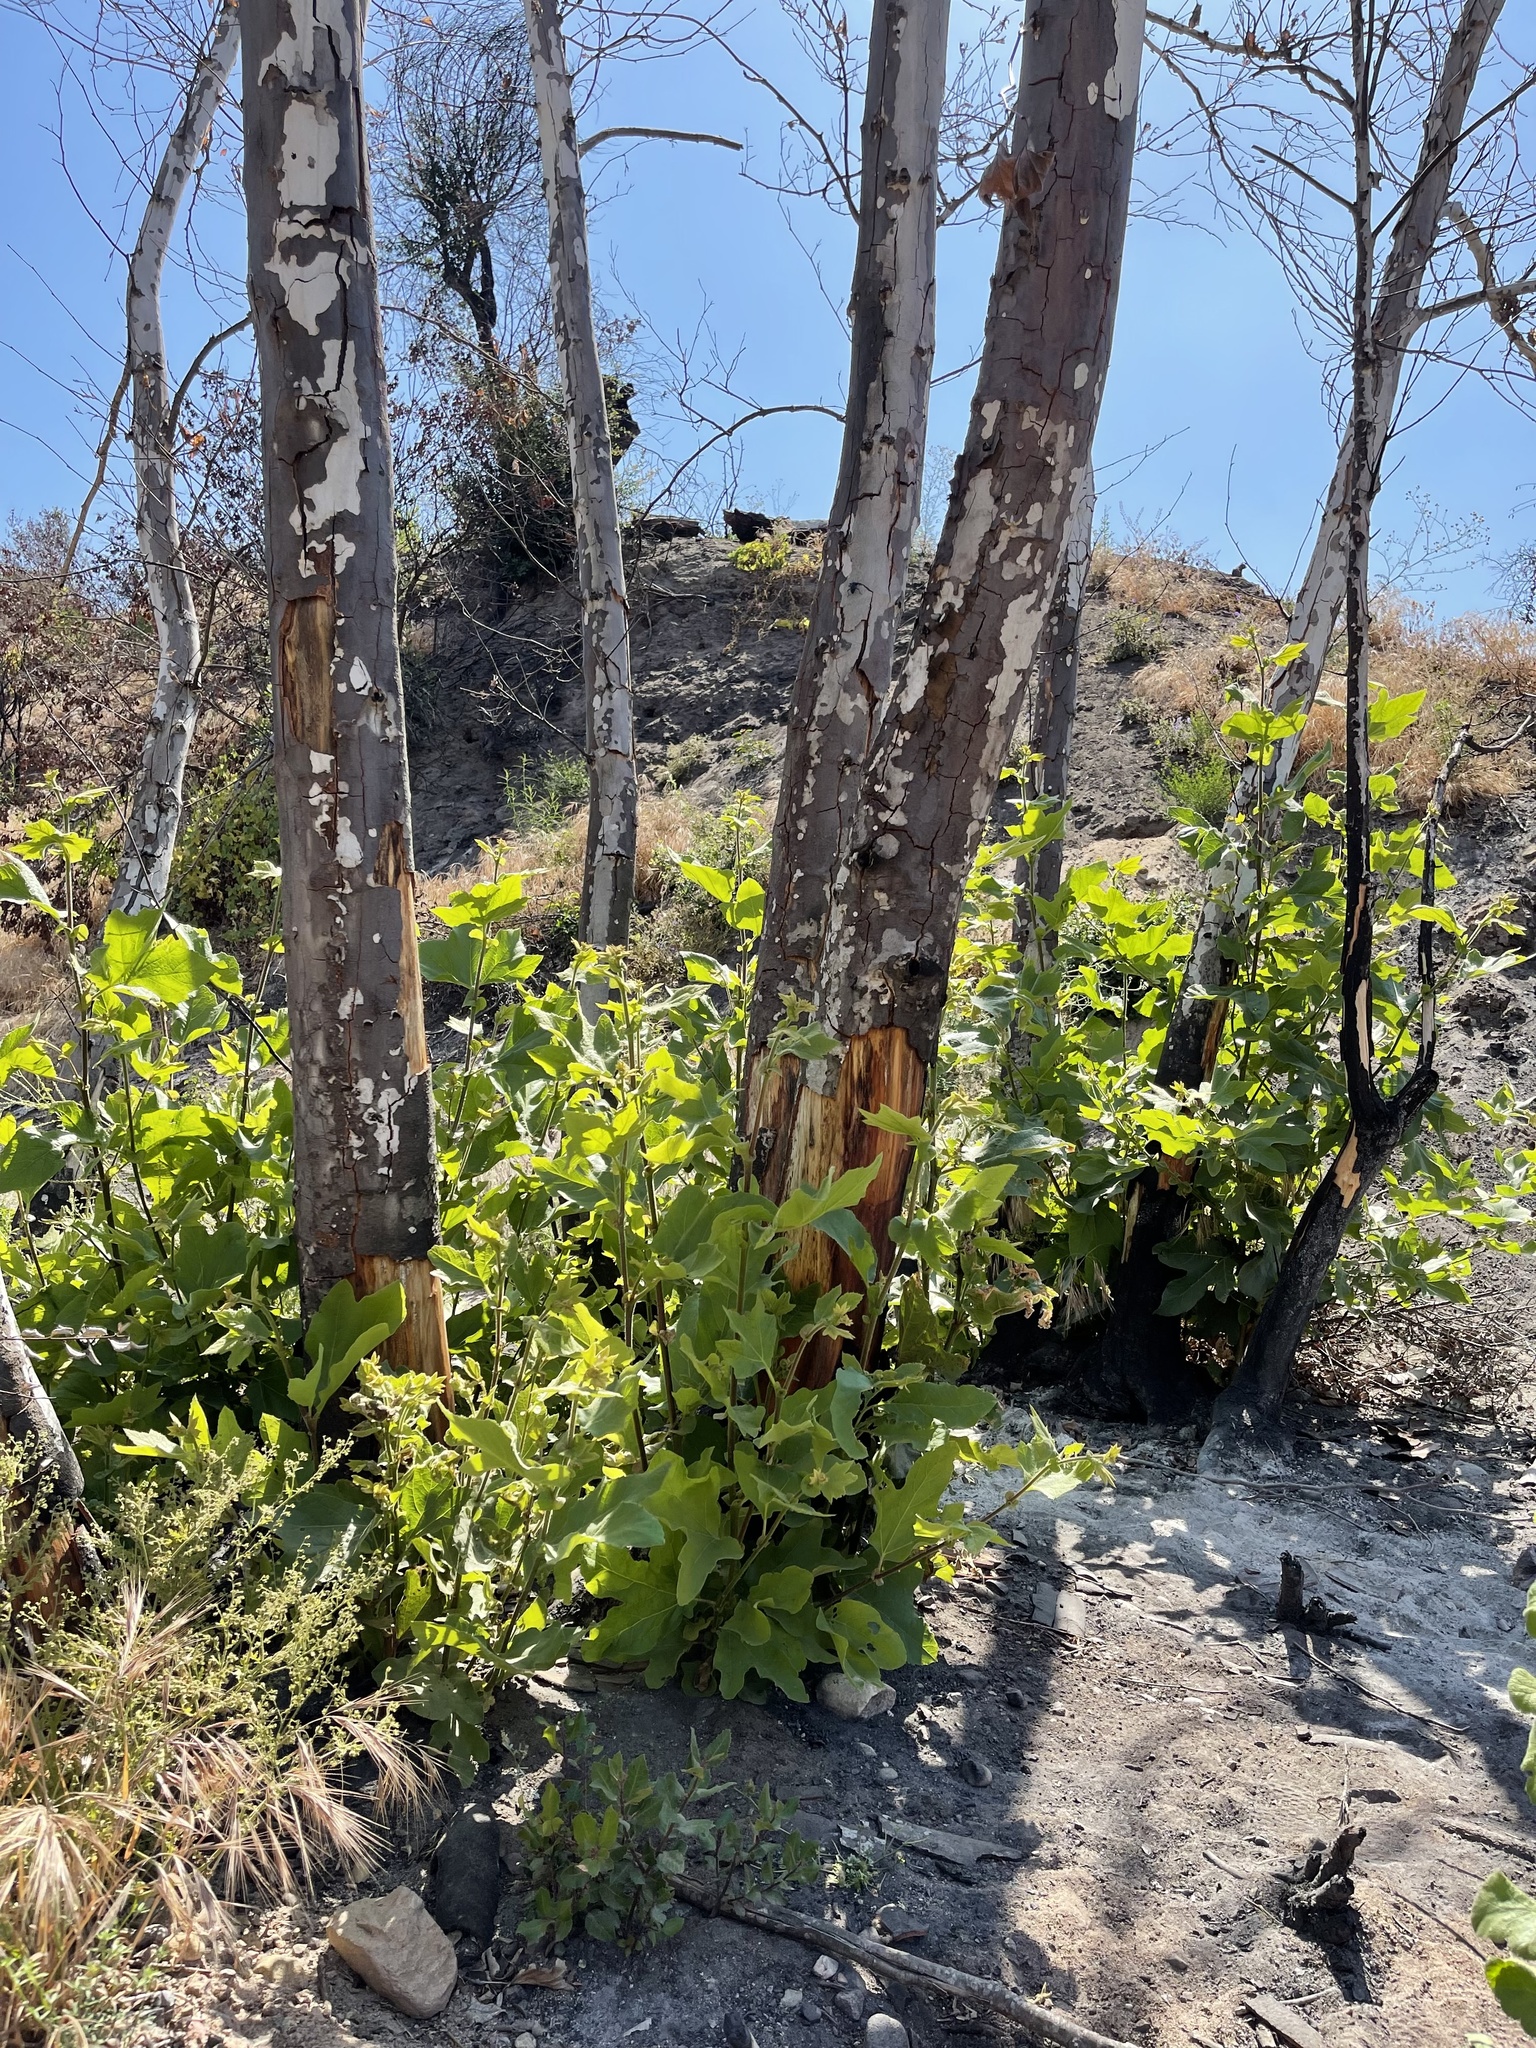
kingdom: Plantae
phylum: Tracheophyta
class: Magnoliopsida
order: Proteales
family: Platanaceae
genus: Platanus
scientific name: Platanus racemosa
